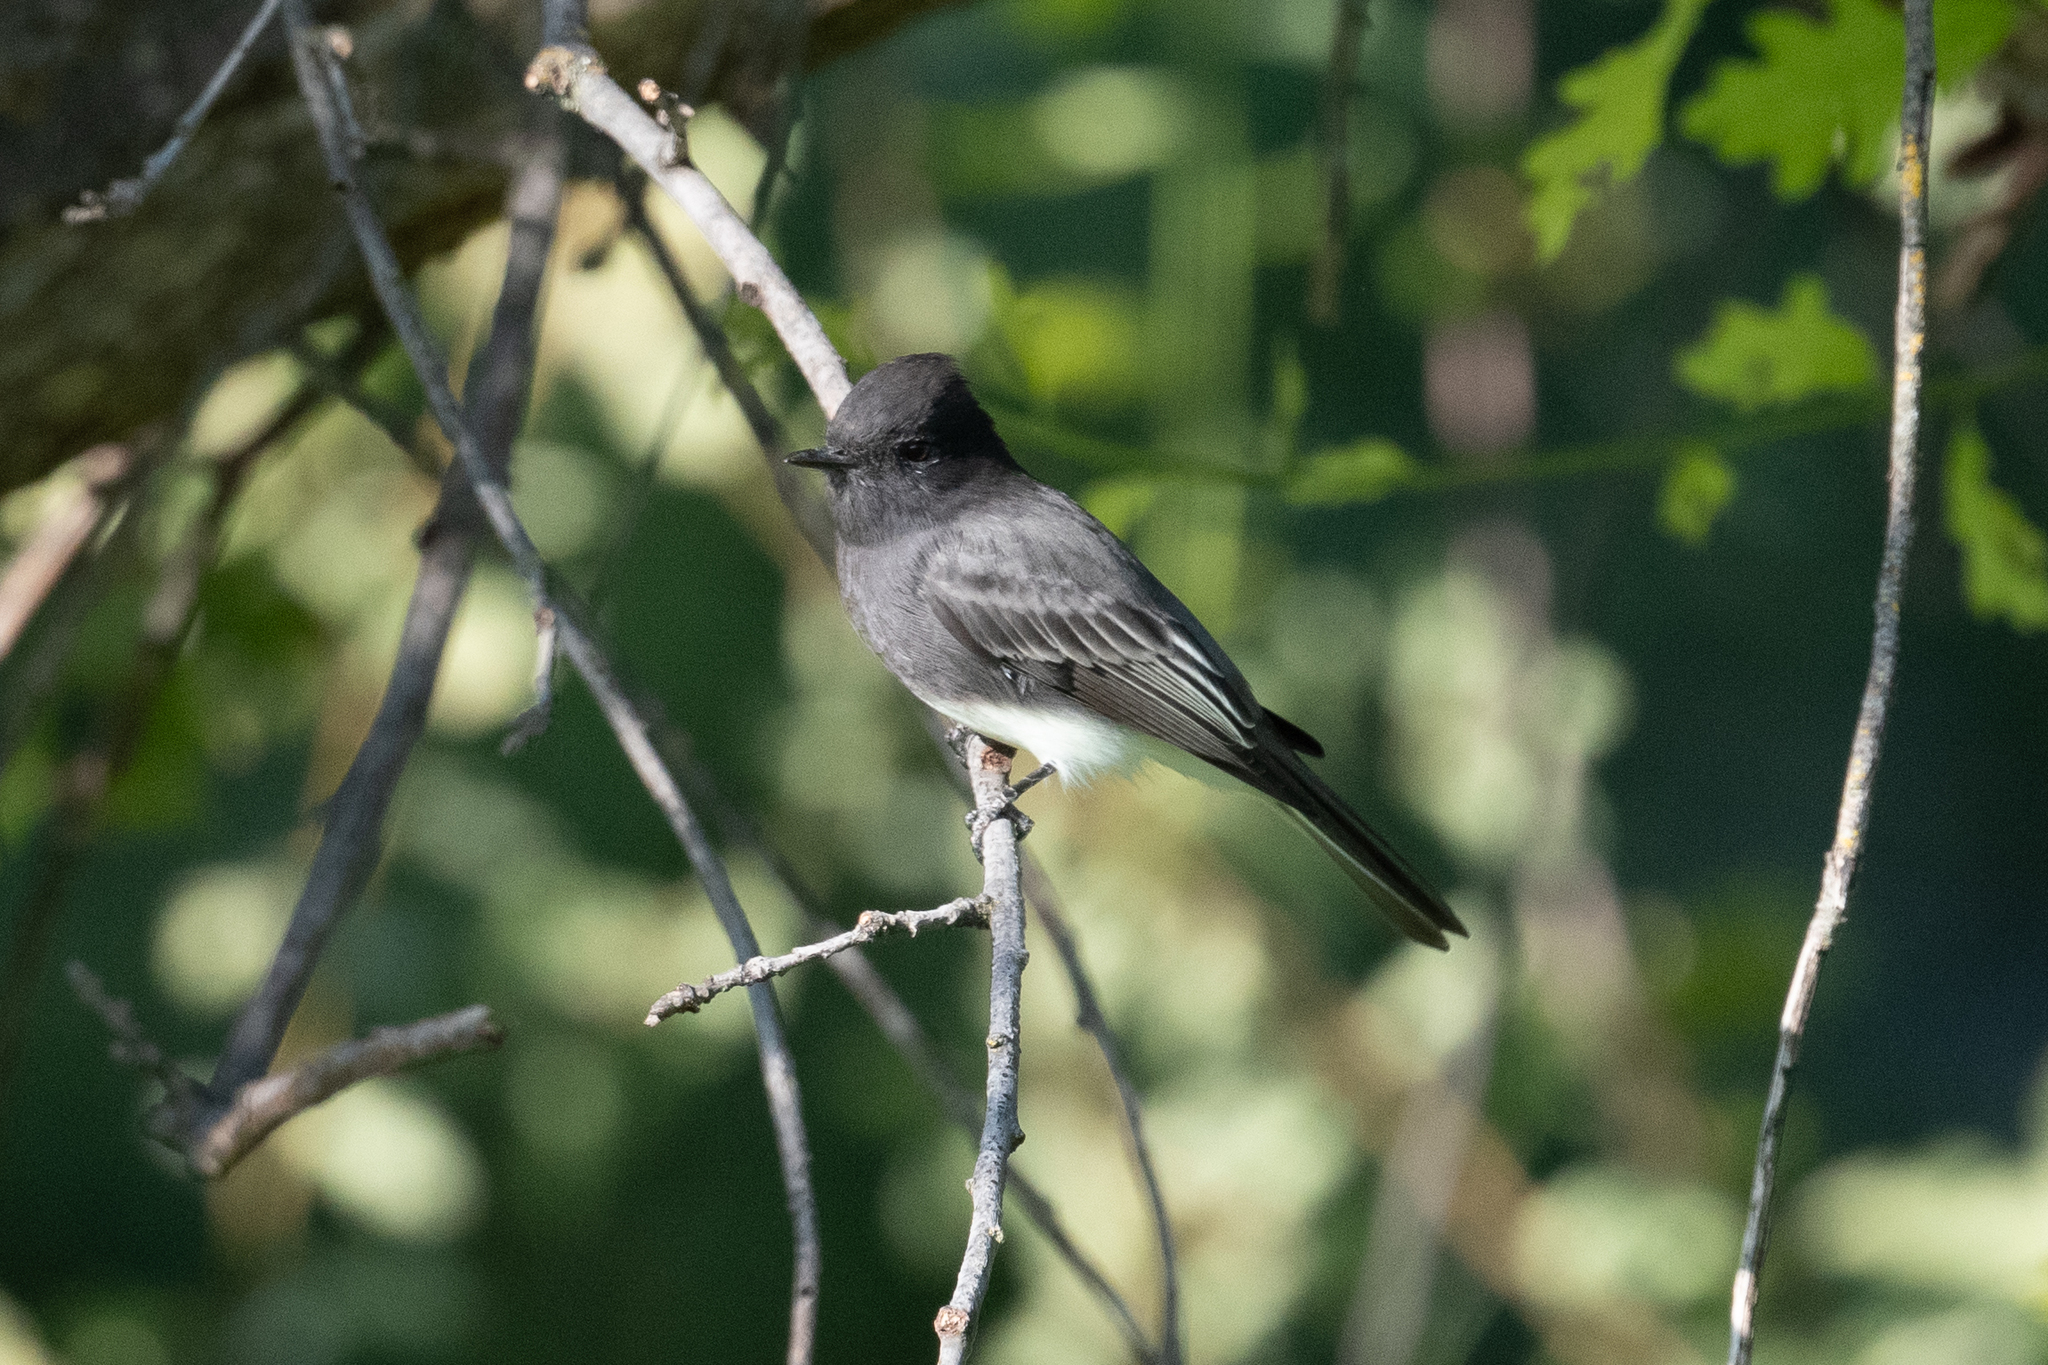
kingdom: Animalia
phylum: Chordata
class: Aves
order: Passeriformes
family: Tyrannidae
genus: Sayornis
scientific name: Sayornis nigricans
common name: Black phoebe
